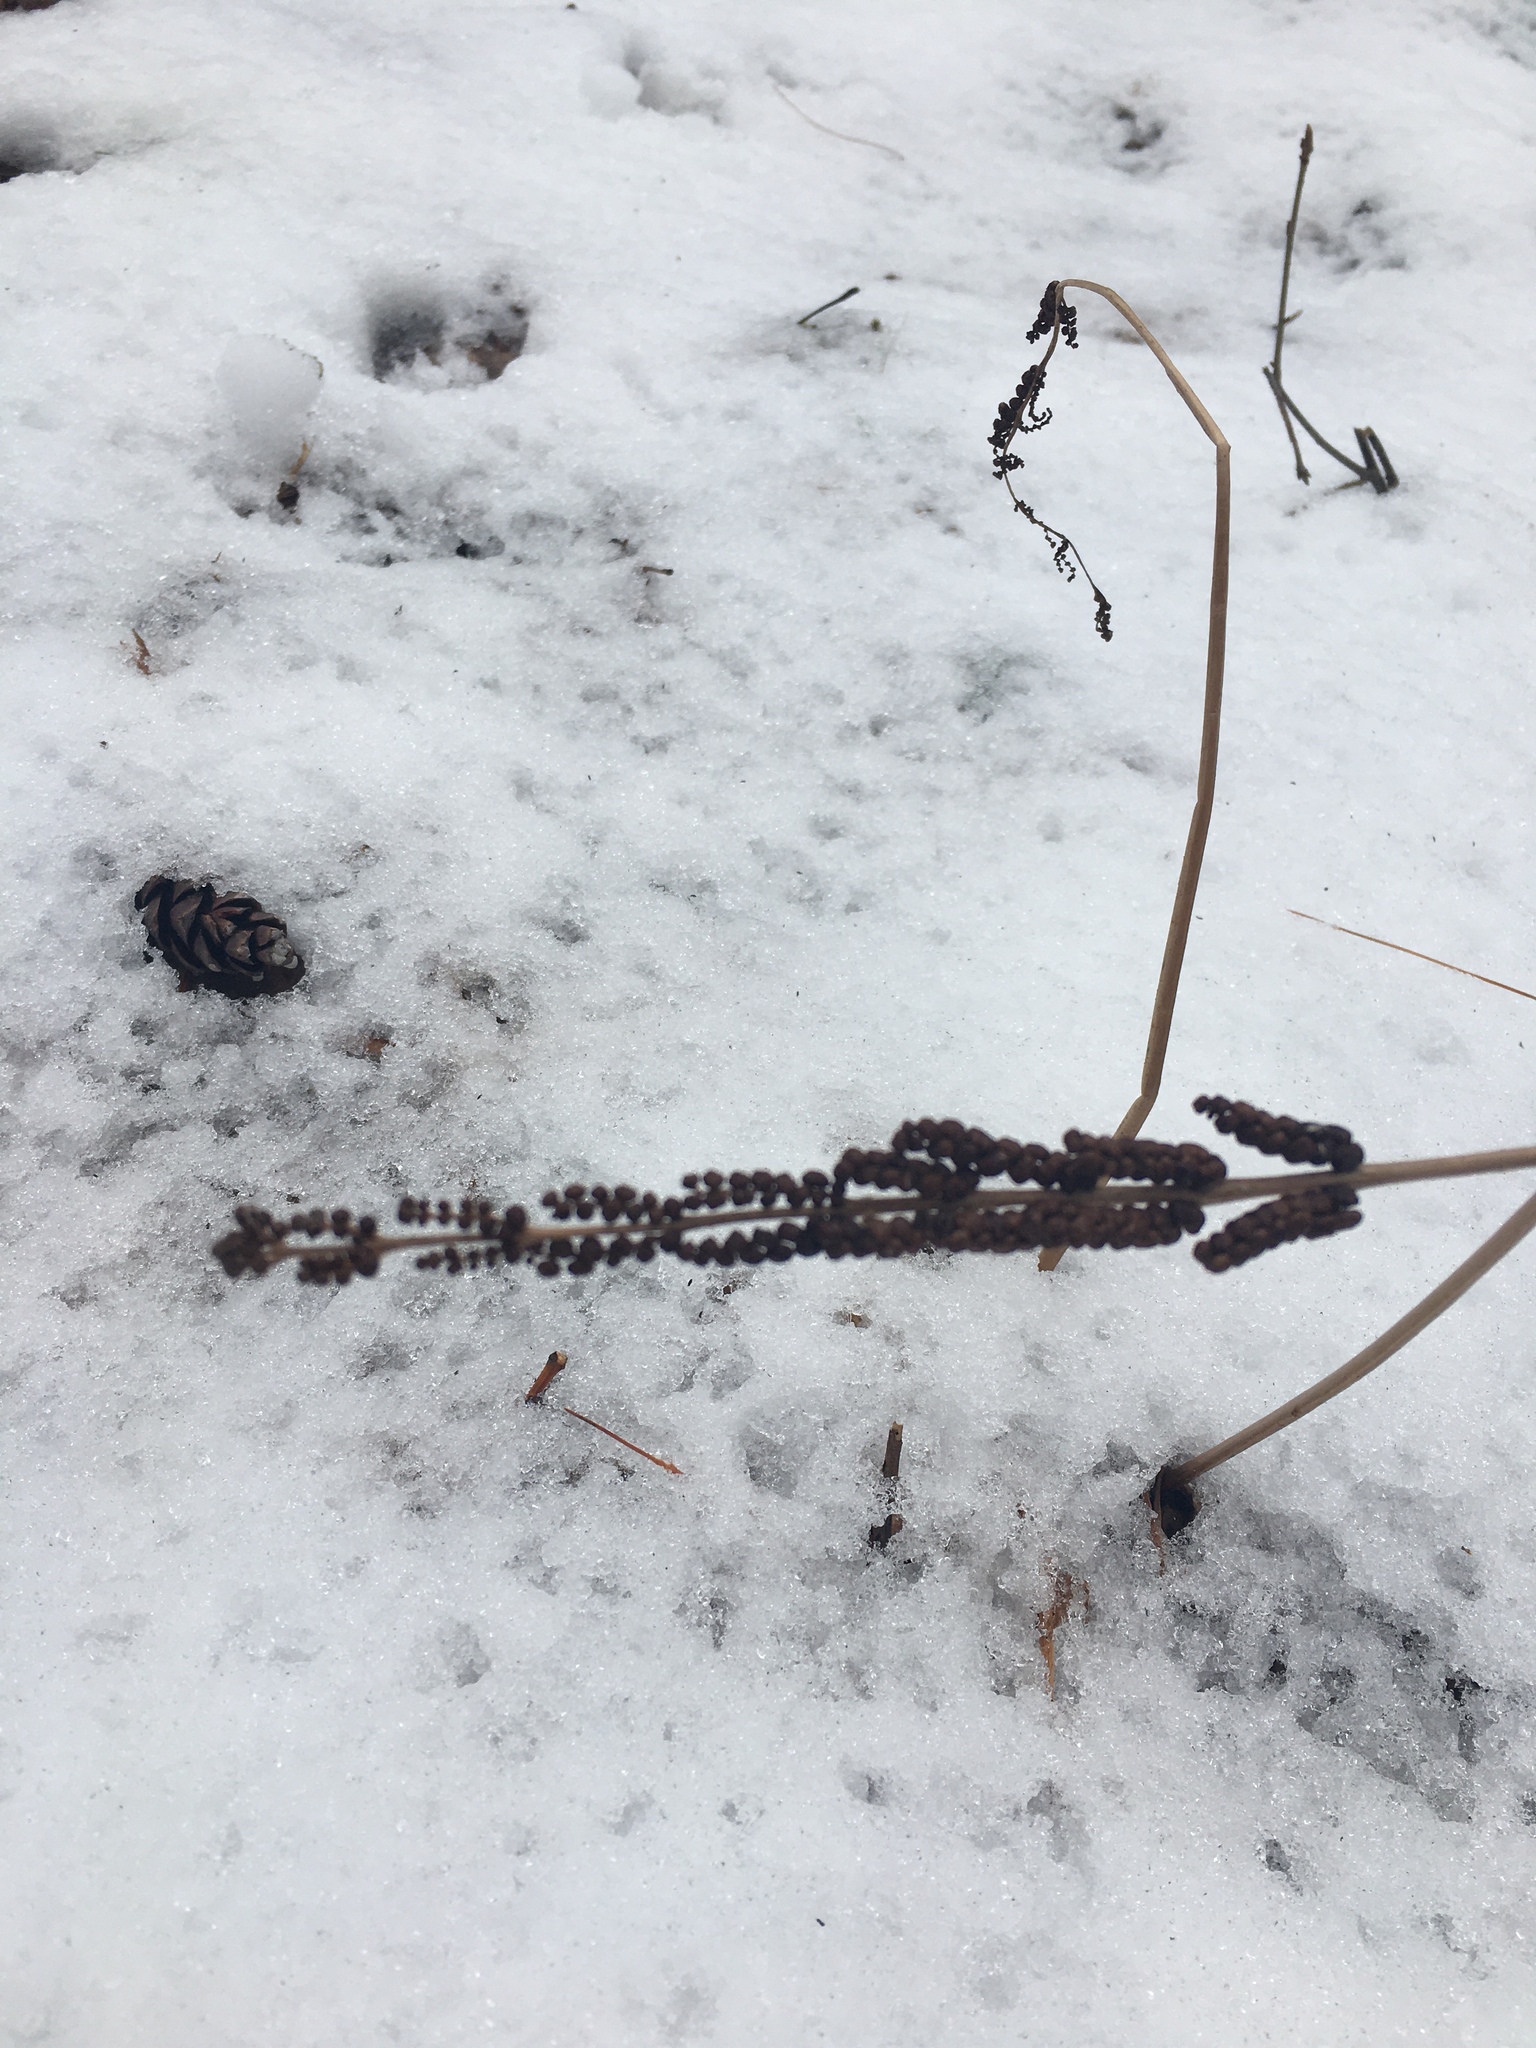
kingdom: Plantae
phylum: Tracheophyta
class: Polypodiopsida
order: Polypodiales
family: Onocleaceae
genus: Onoclea
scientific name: Onoclea sensibilis
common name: Sensitive fern
